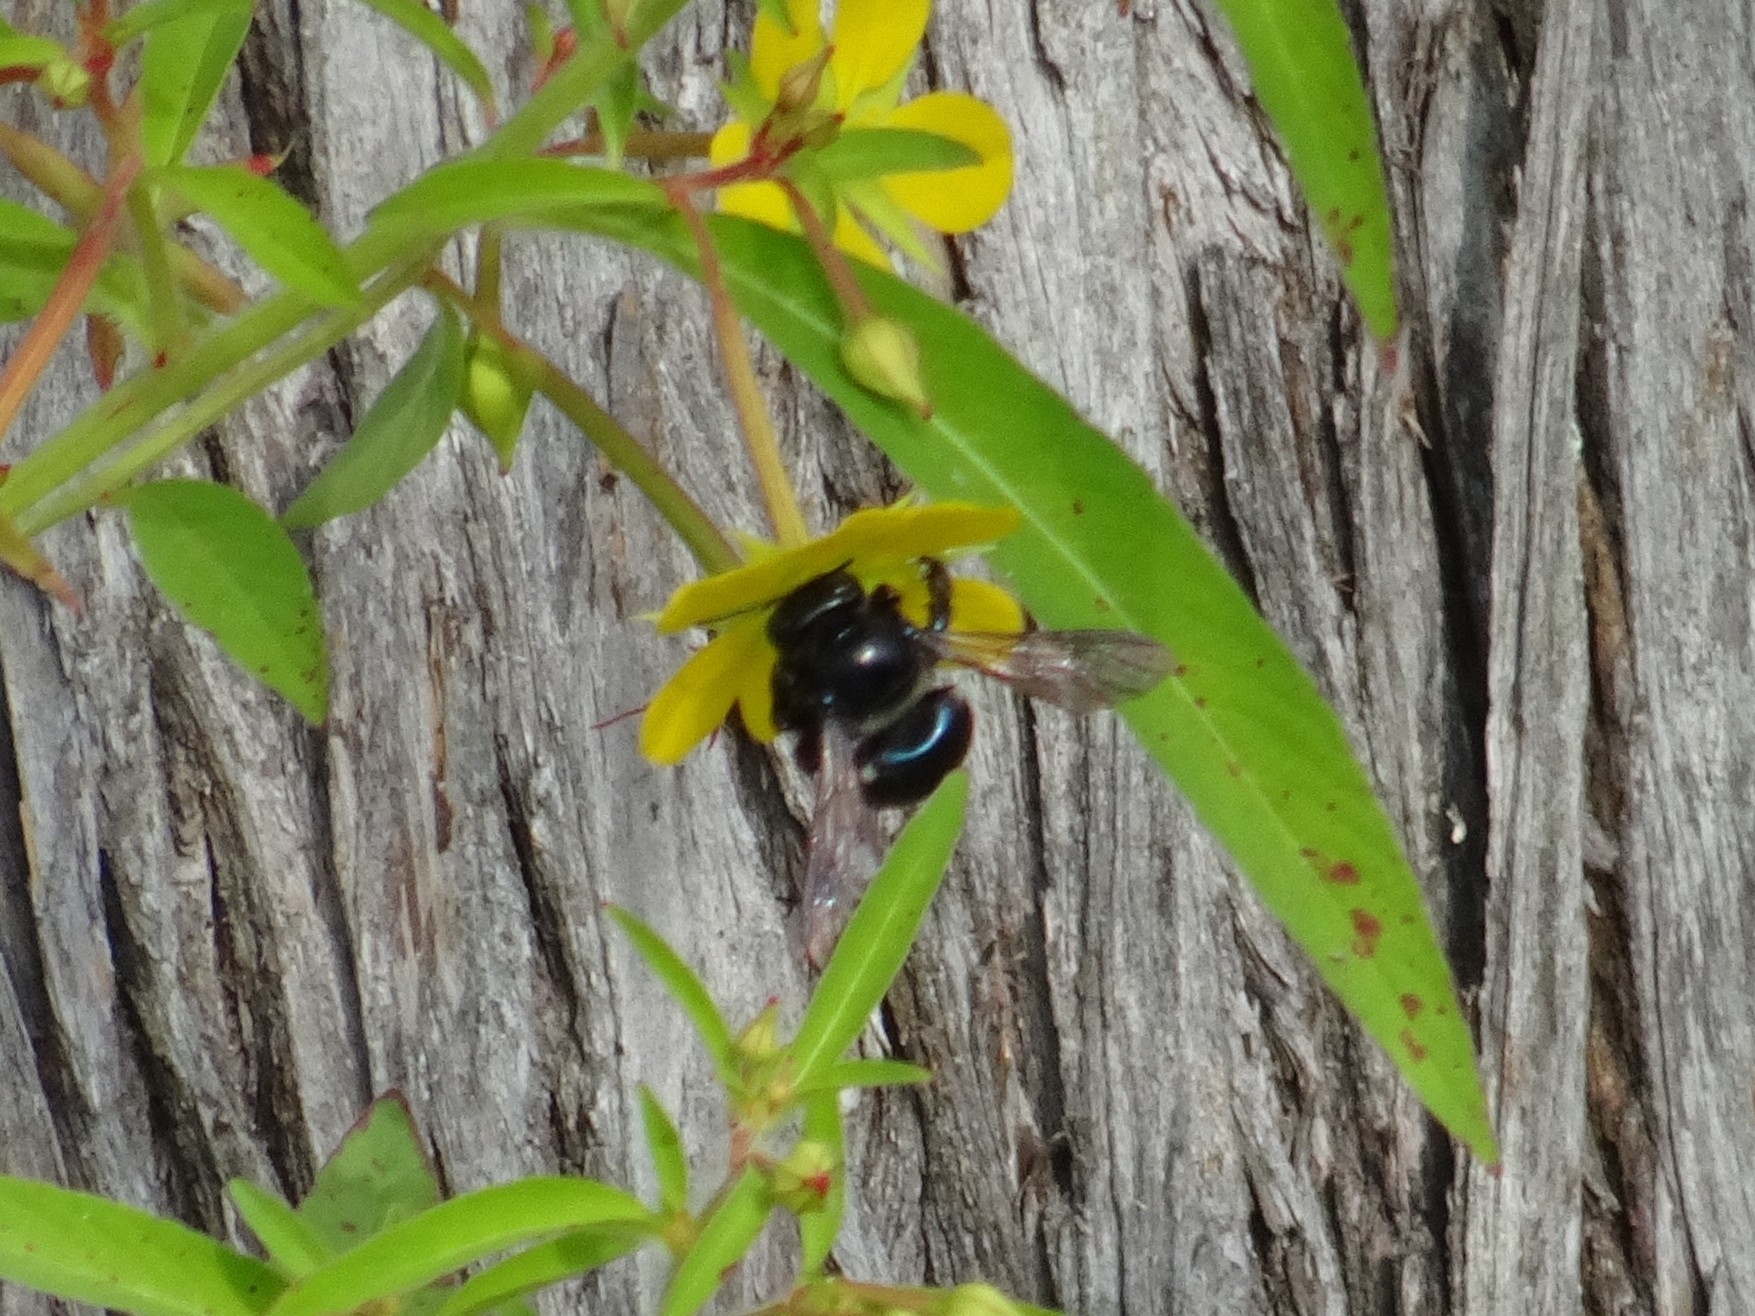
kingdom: Animalia
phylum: Arthropoda
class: Insecta
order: Hymenoptera
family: Apidae
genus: Xylocopa
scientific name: Xylocopa micans
